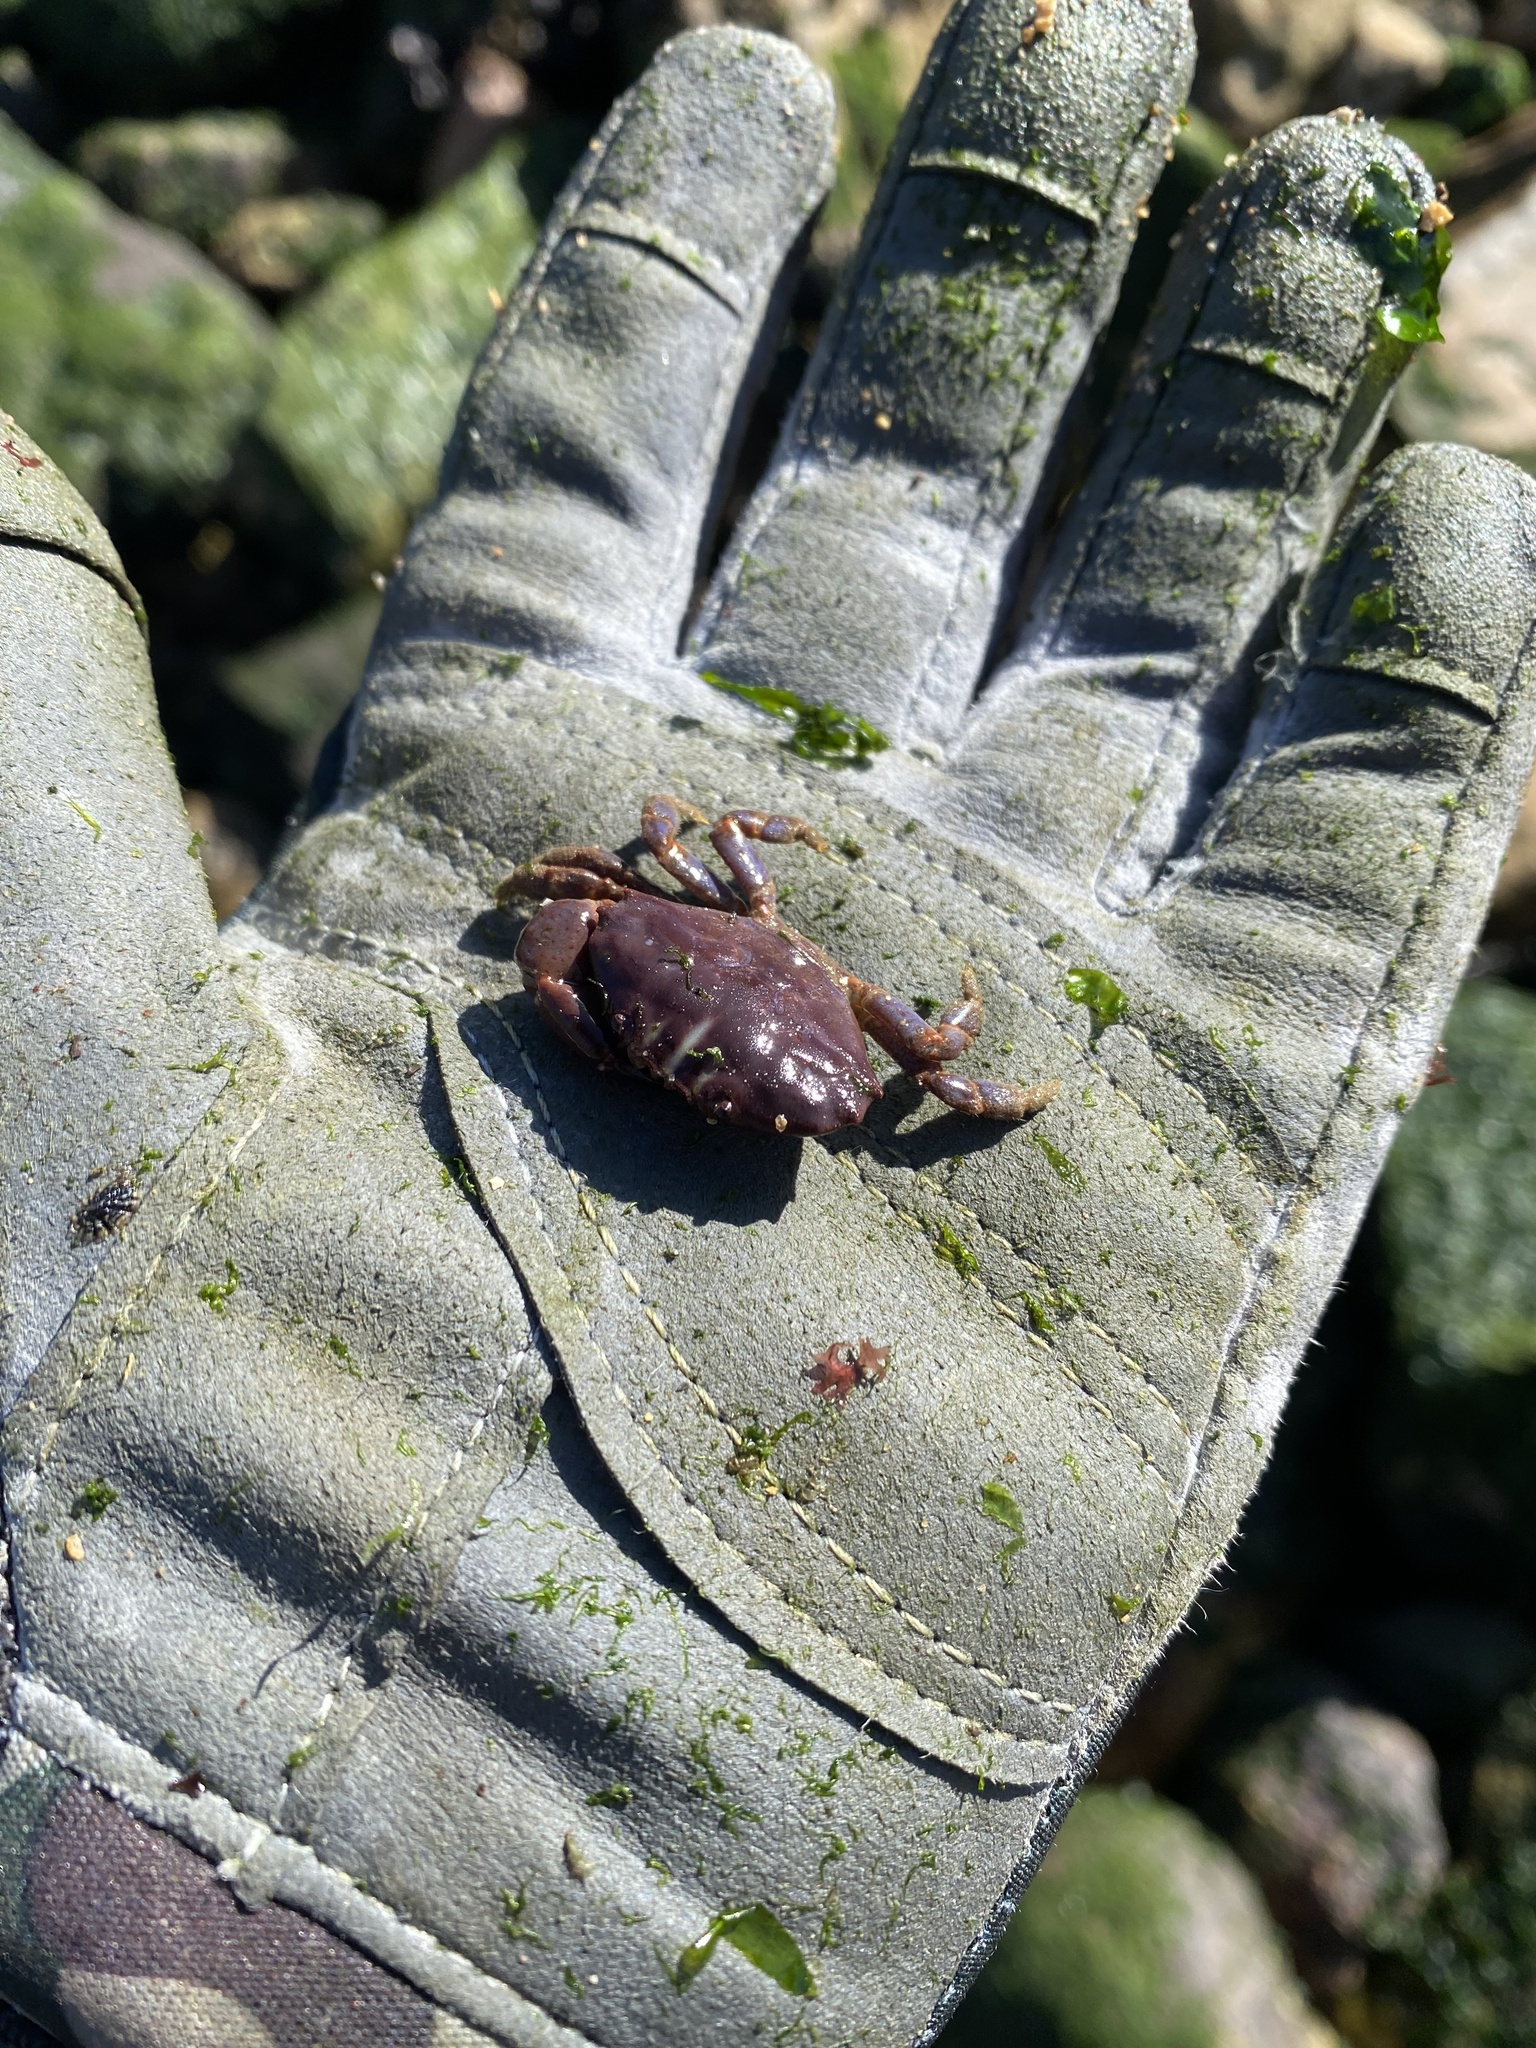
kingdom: Animalia
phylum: Arthropoda
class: Malacostraca
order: Decapoda
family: Xanthidae
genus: Gaudichaudia
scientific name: Gaudichaudia gaudichaudii
